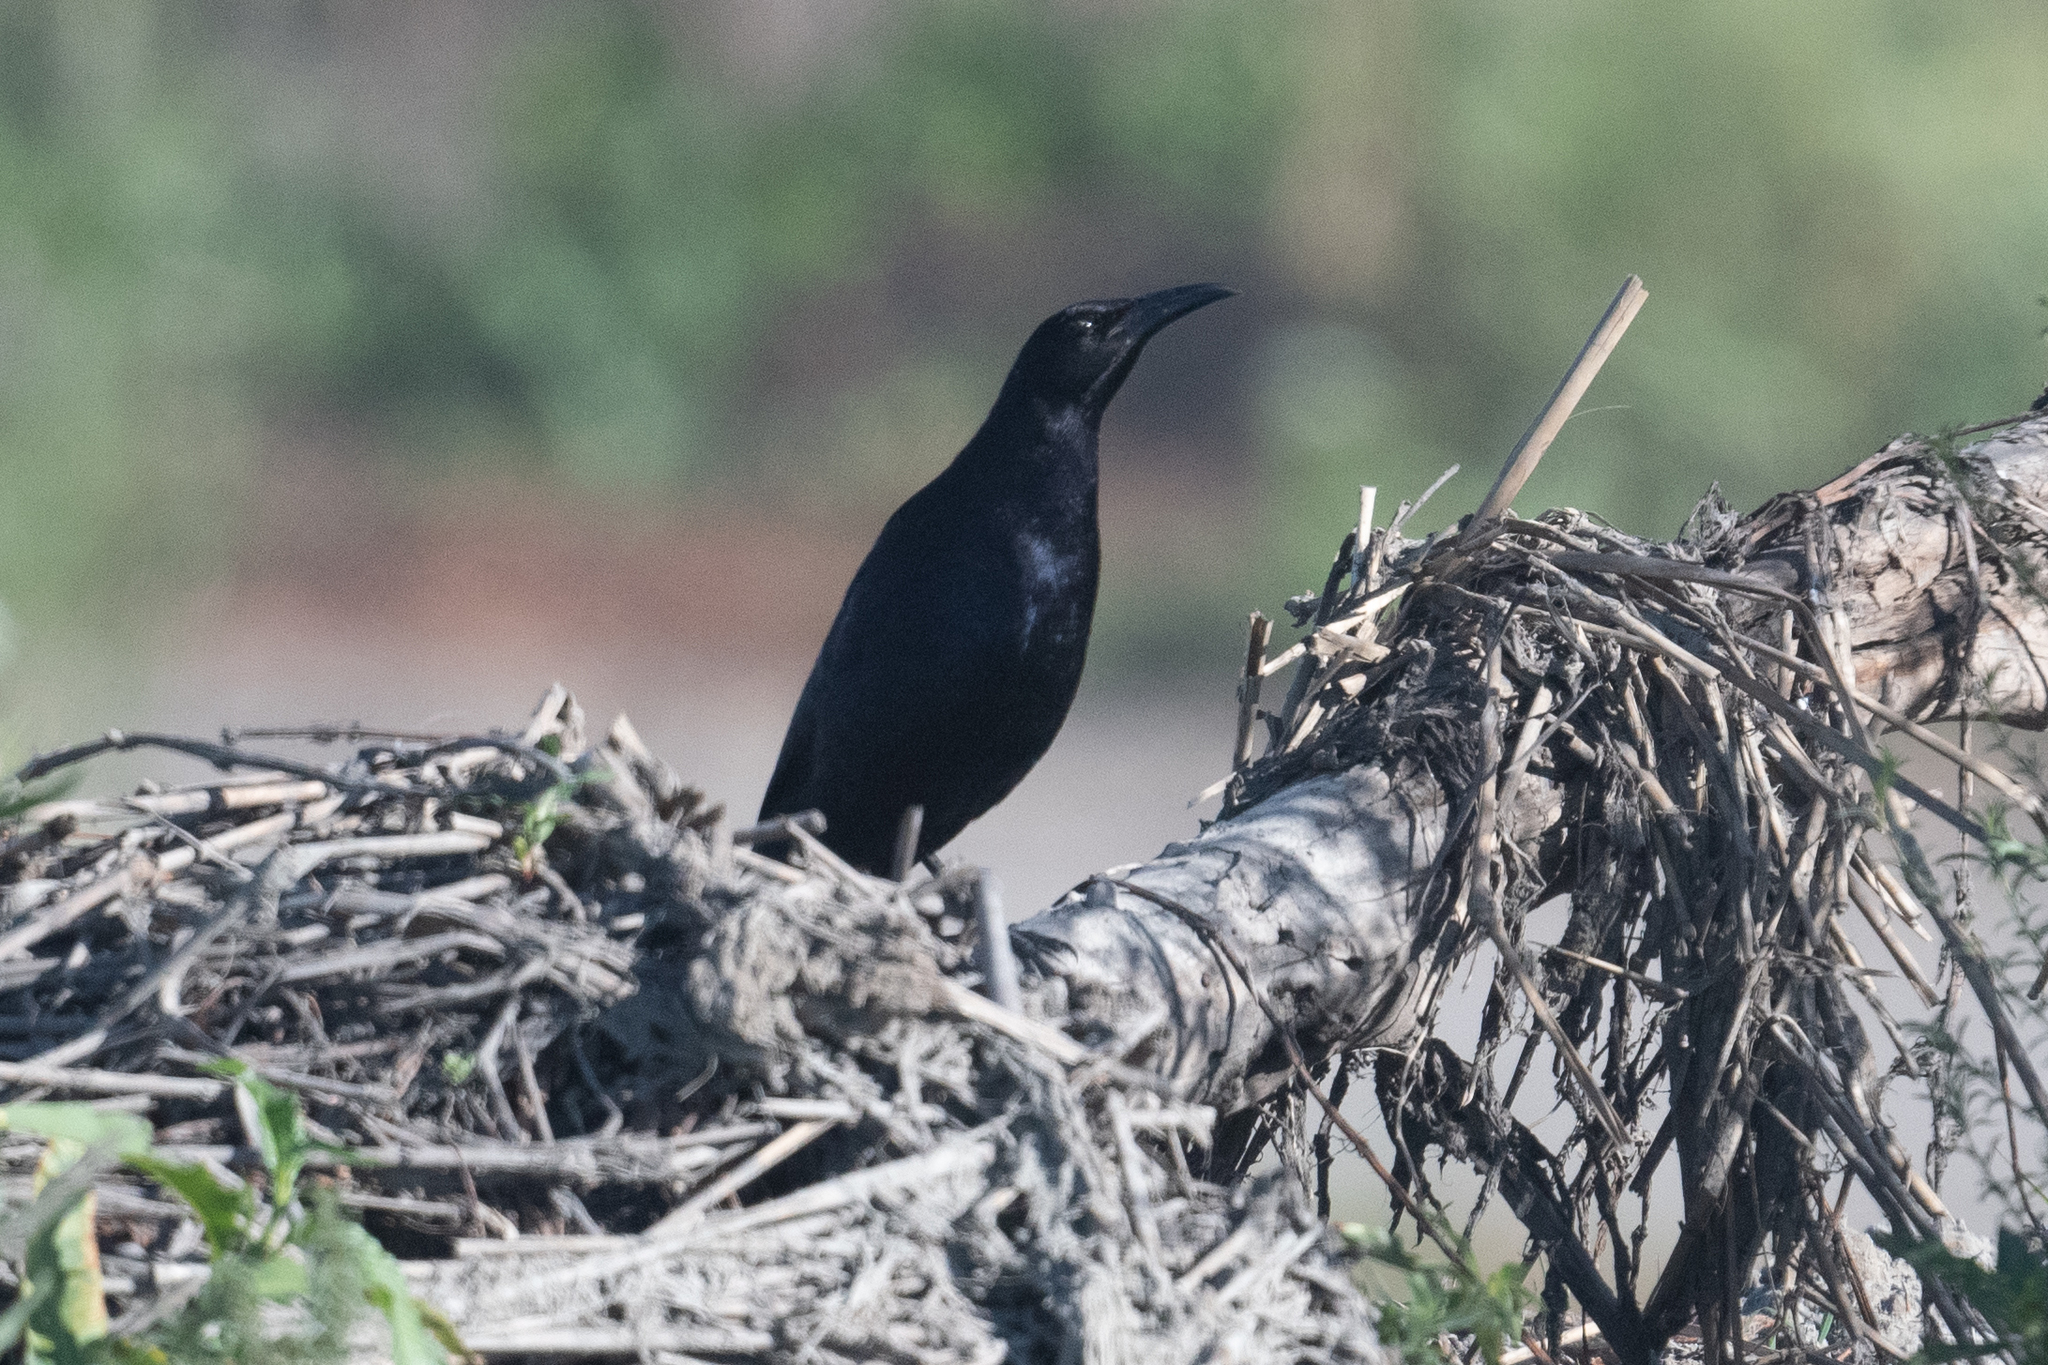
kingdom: Animalia
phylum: Chordata
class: Aves
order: Passeriformes
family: Icteridae
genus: Quiscalus
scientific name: Quiscalus mexicanus
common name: Great-tailed grackle
